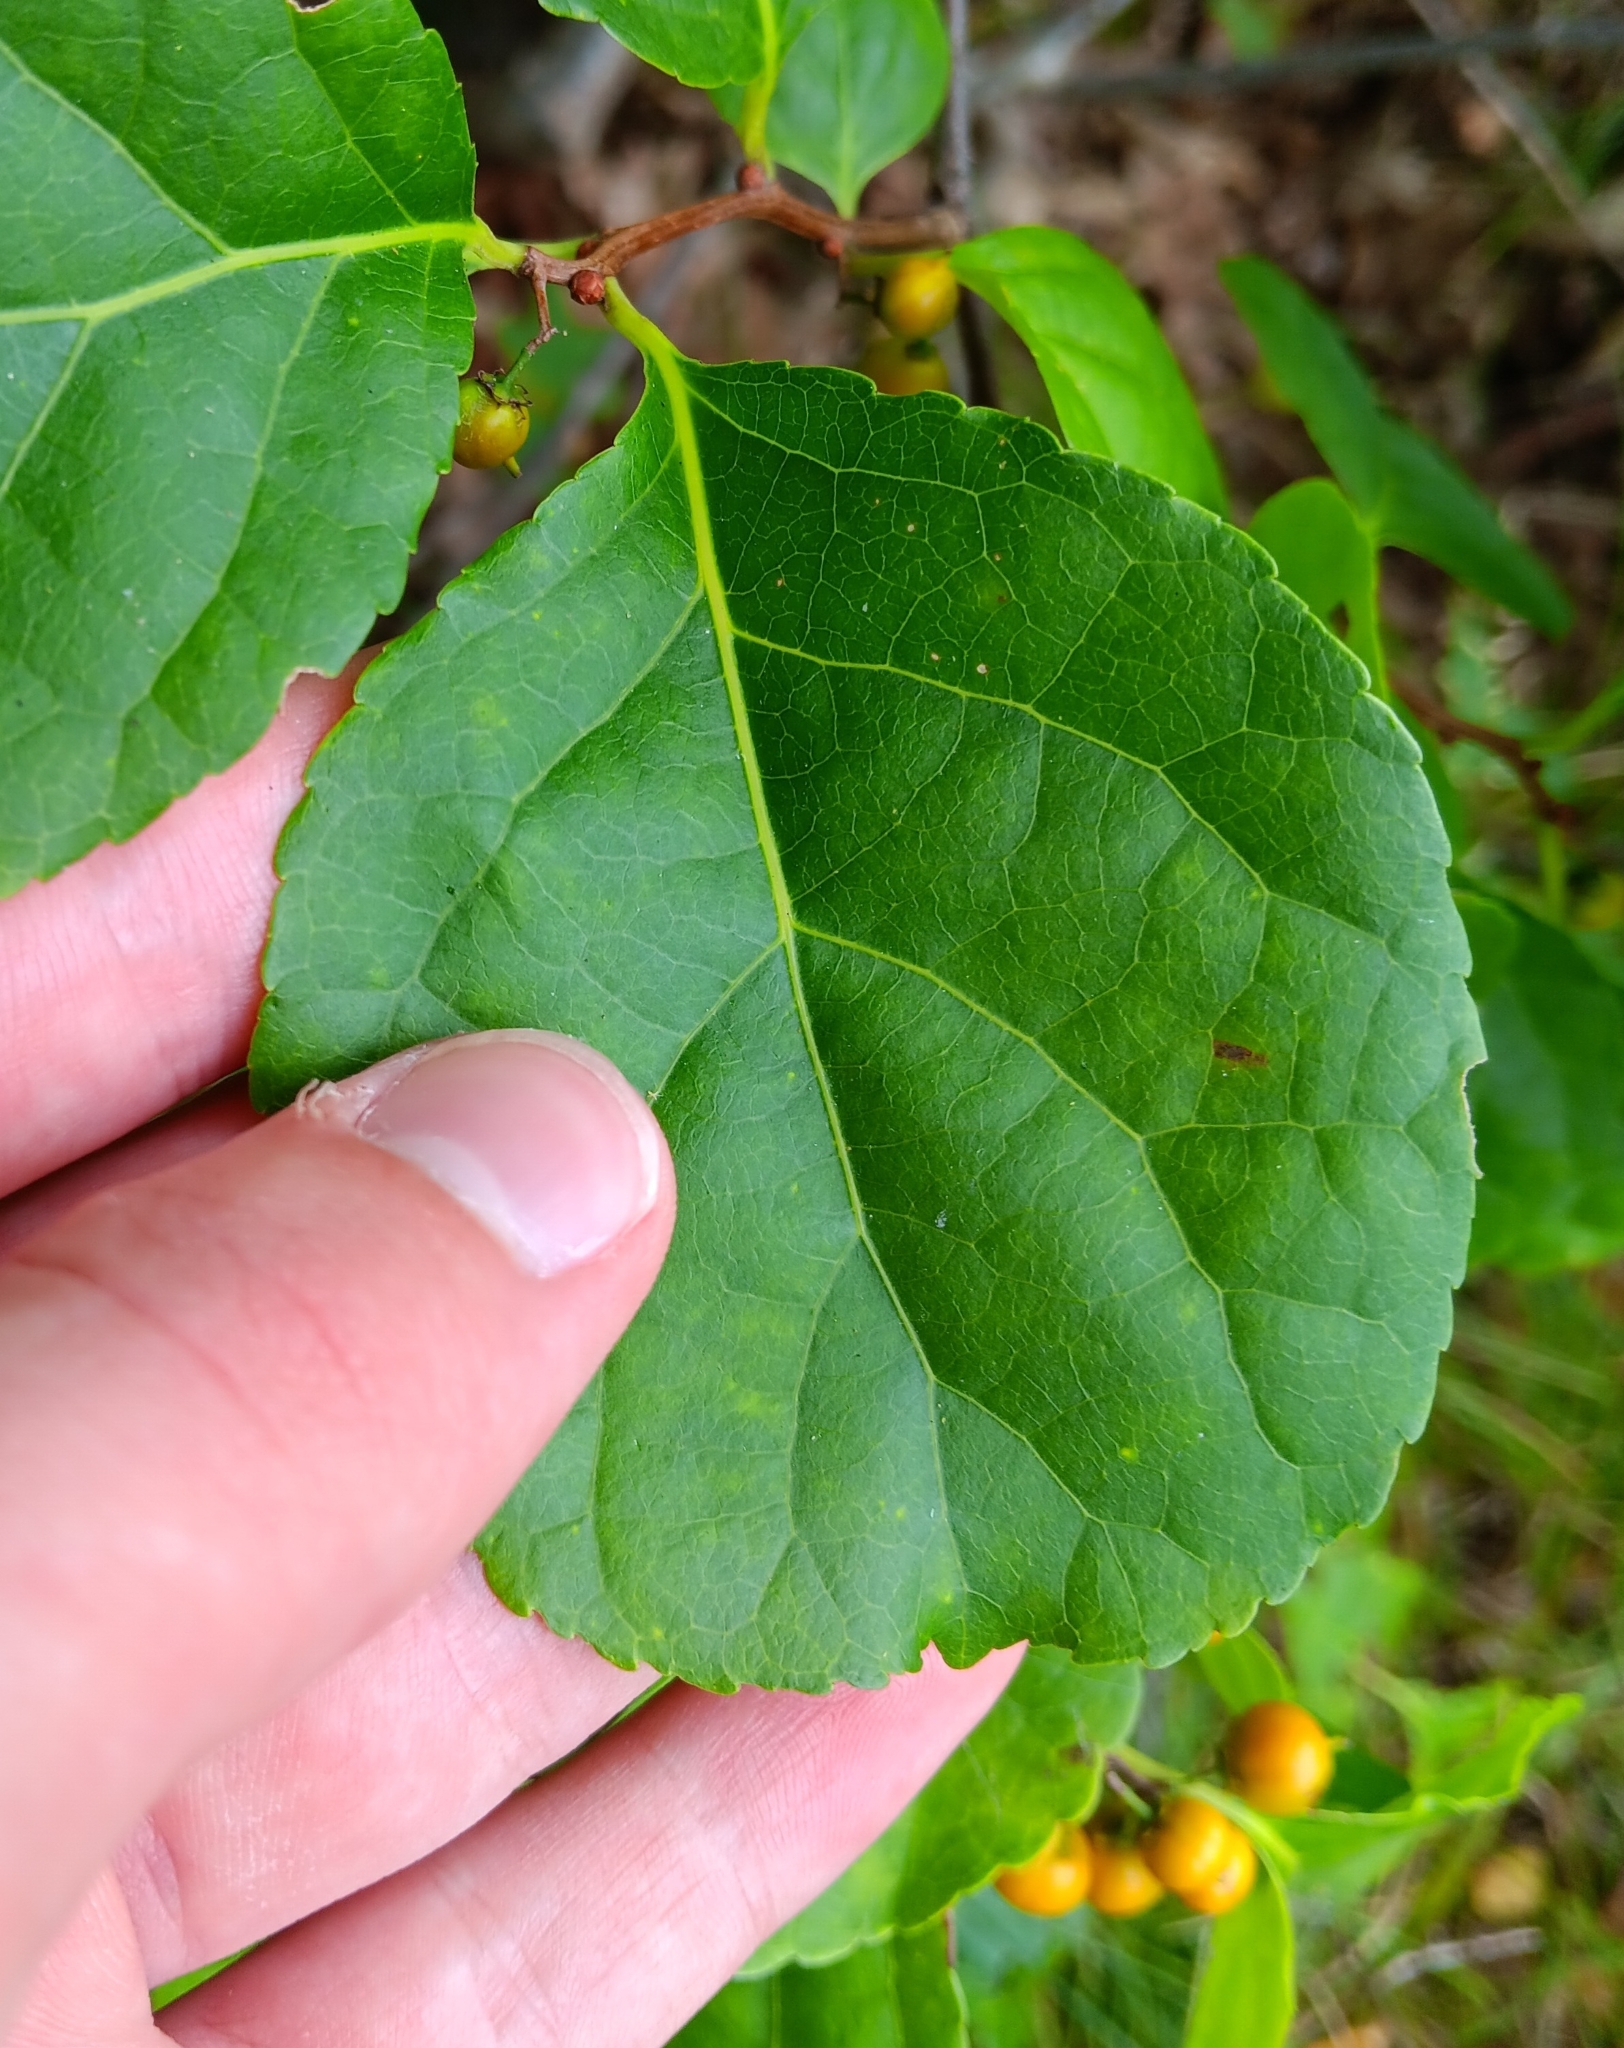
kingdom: Plantae
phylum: Tracheophyta
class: Magnoliopsida
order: Celastrales
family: Celastraceae
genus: Celastrus
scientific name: Celastrus orbiculatus
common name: Oriental bittersweet
